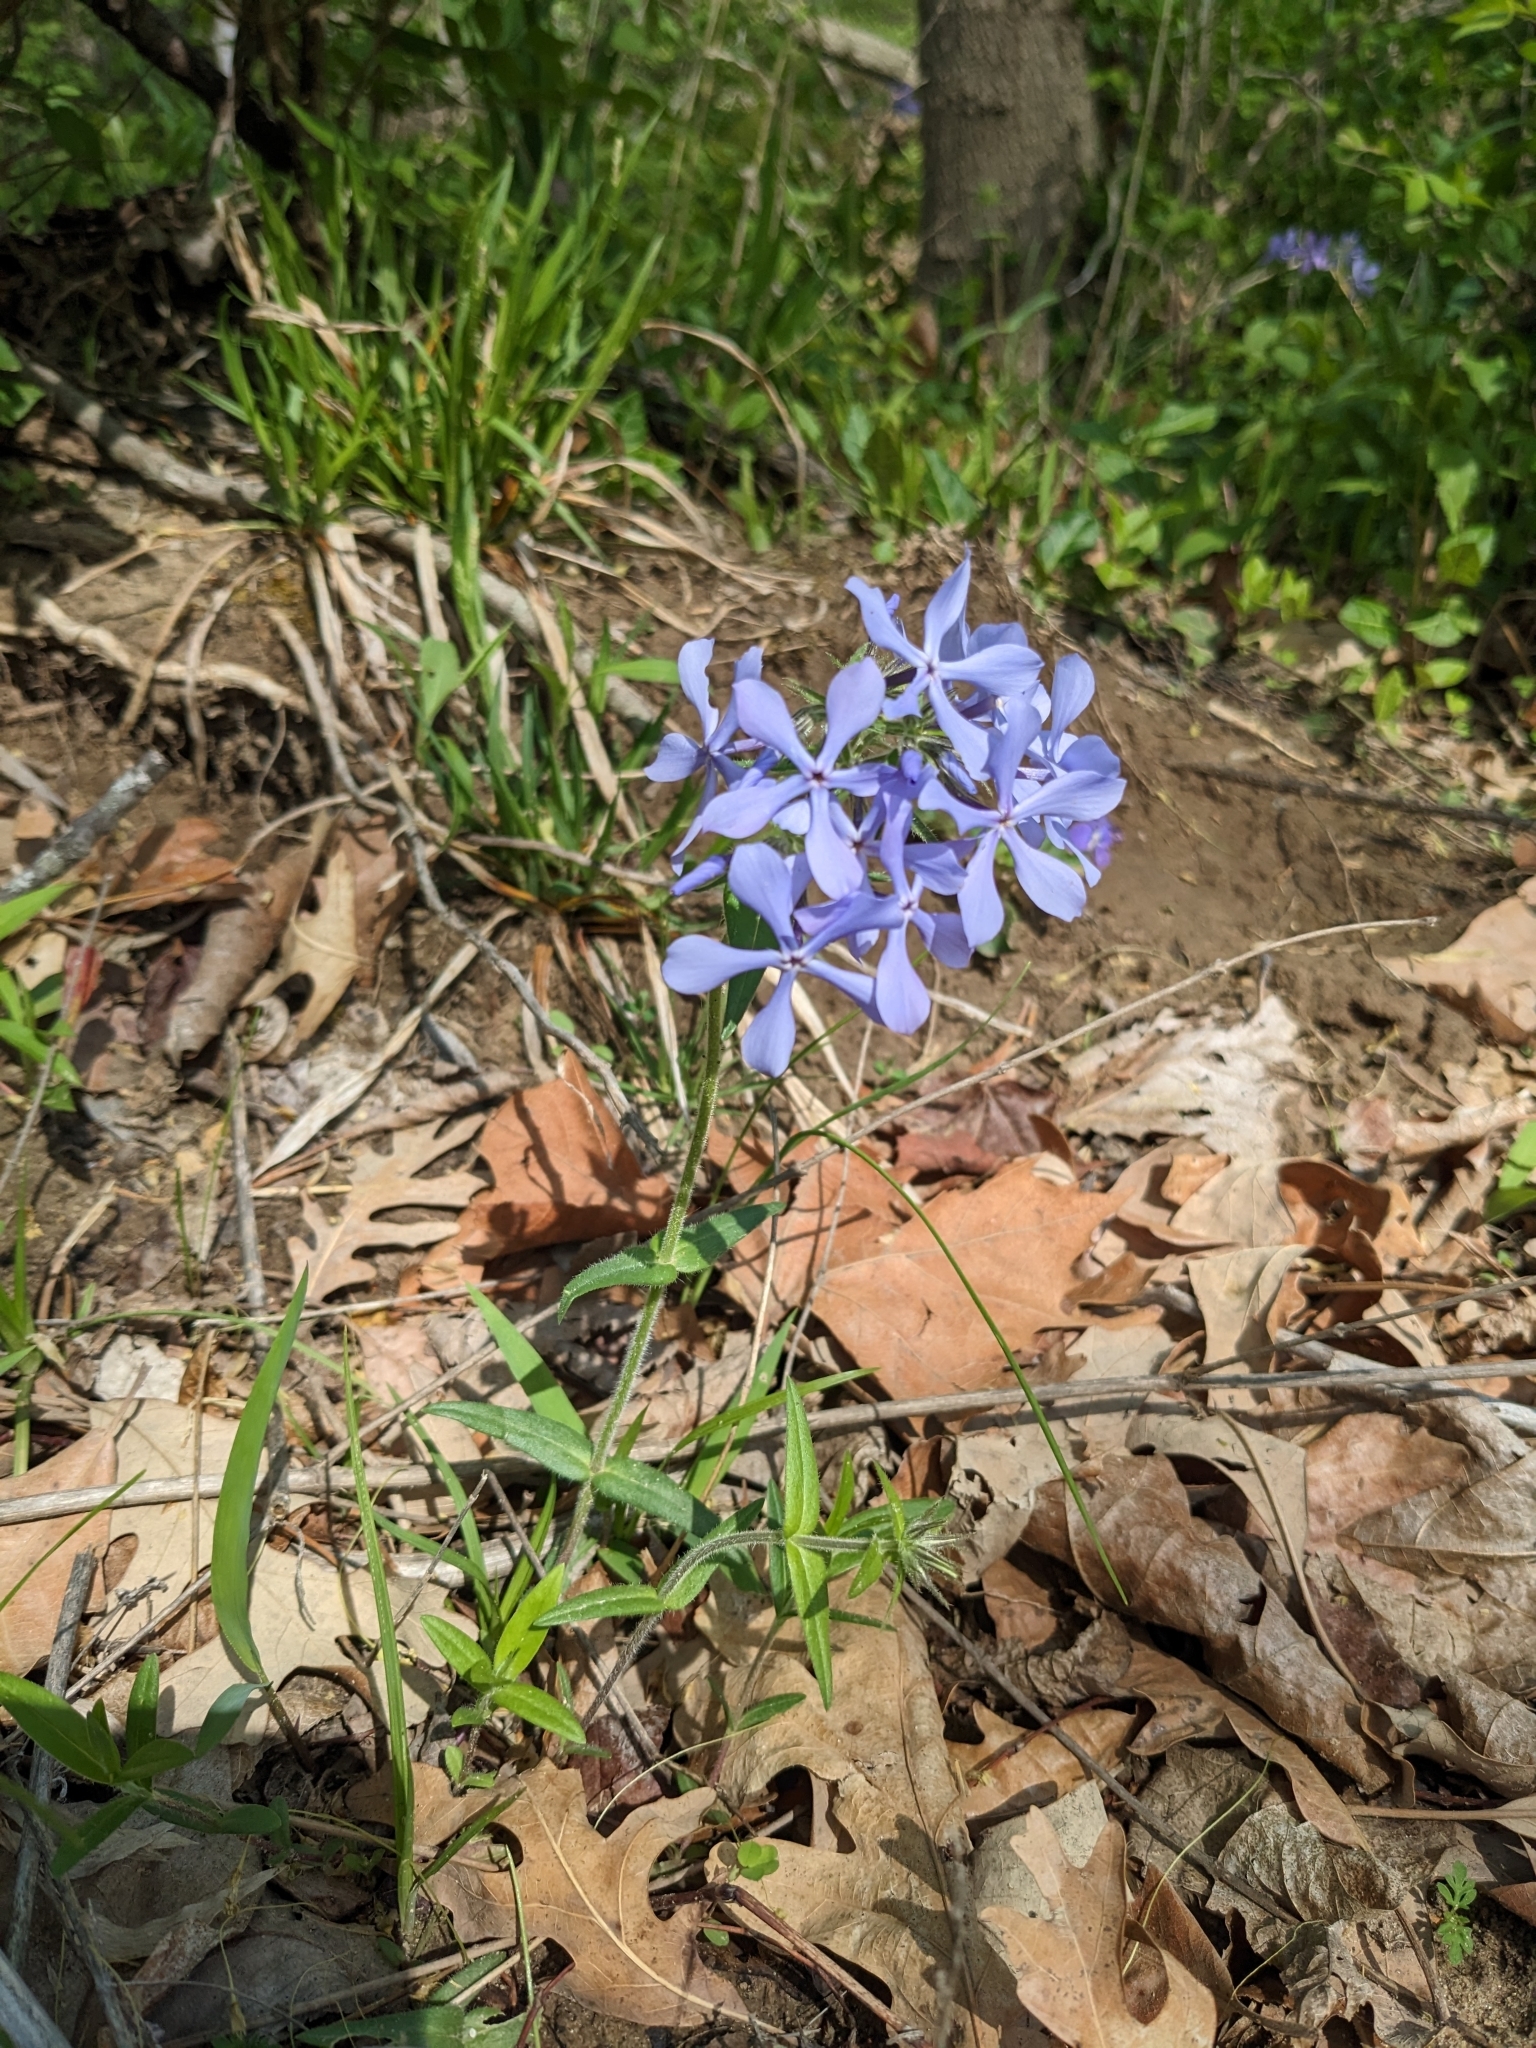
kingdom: Plantae
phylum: Tracheophyta
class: Magnoliopsida
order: Ericales
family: Polemoniaceae
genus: Phlox
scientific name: Phlox divaricata
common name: Blue phlox
